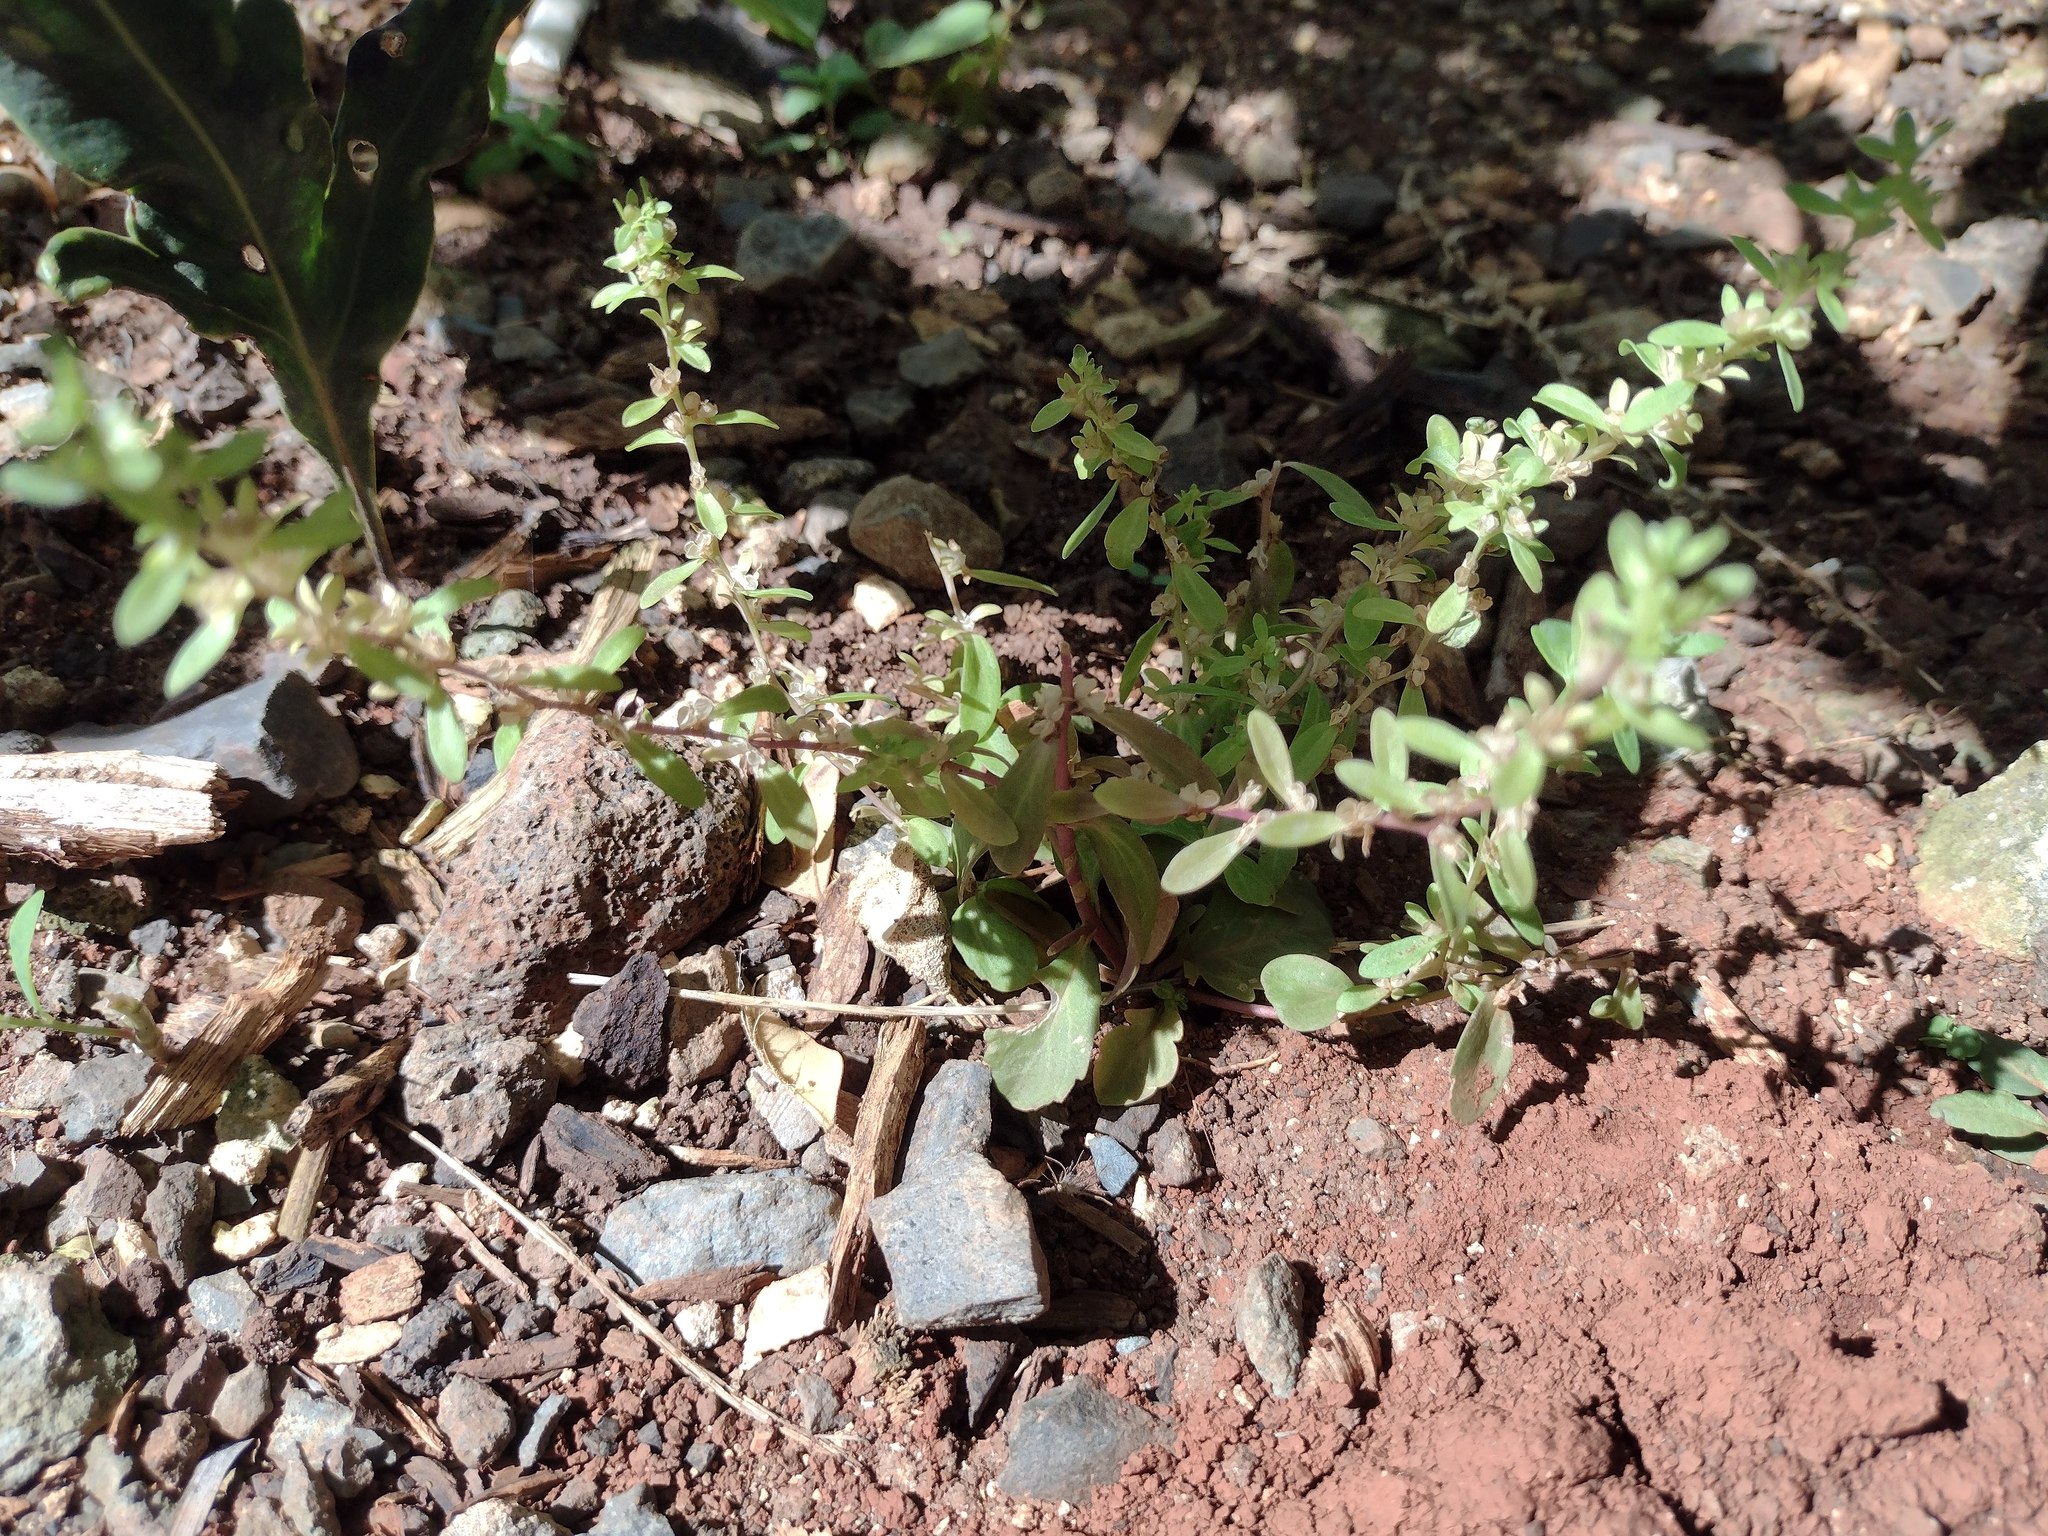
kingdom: Plantae
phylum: Tracheophyta
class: Magnoliopsida
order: Lamiales
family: Plantaginaceae
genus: Veronica
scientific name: Veronica peregrina
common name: Neckweed
